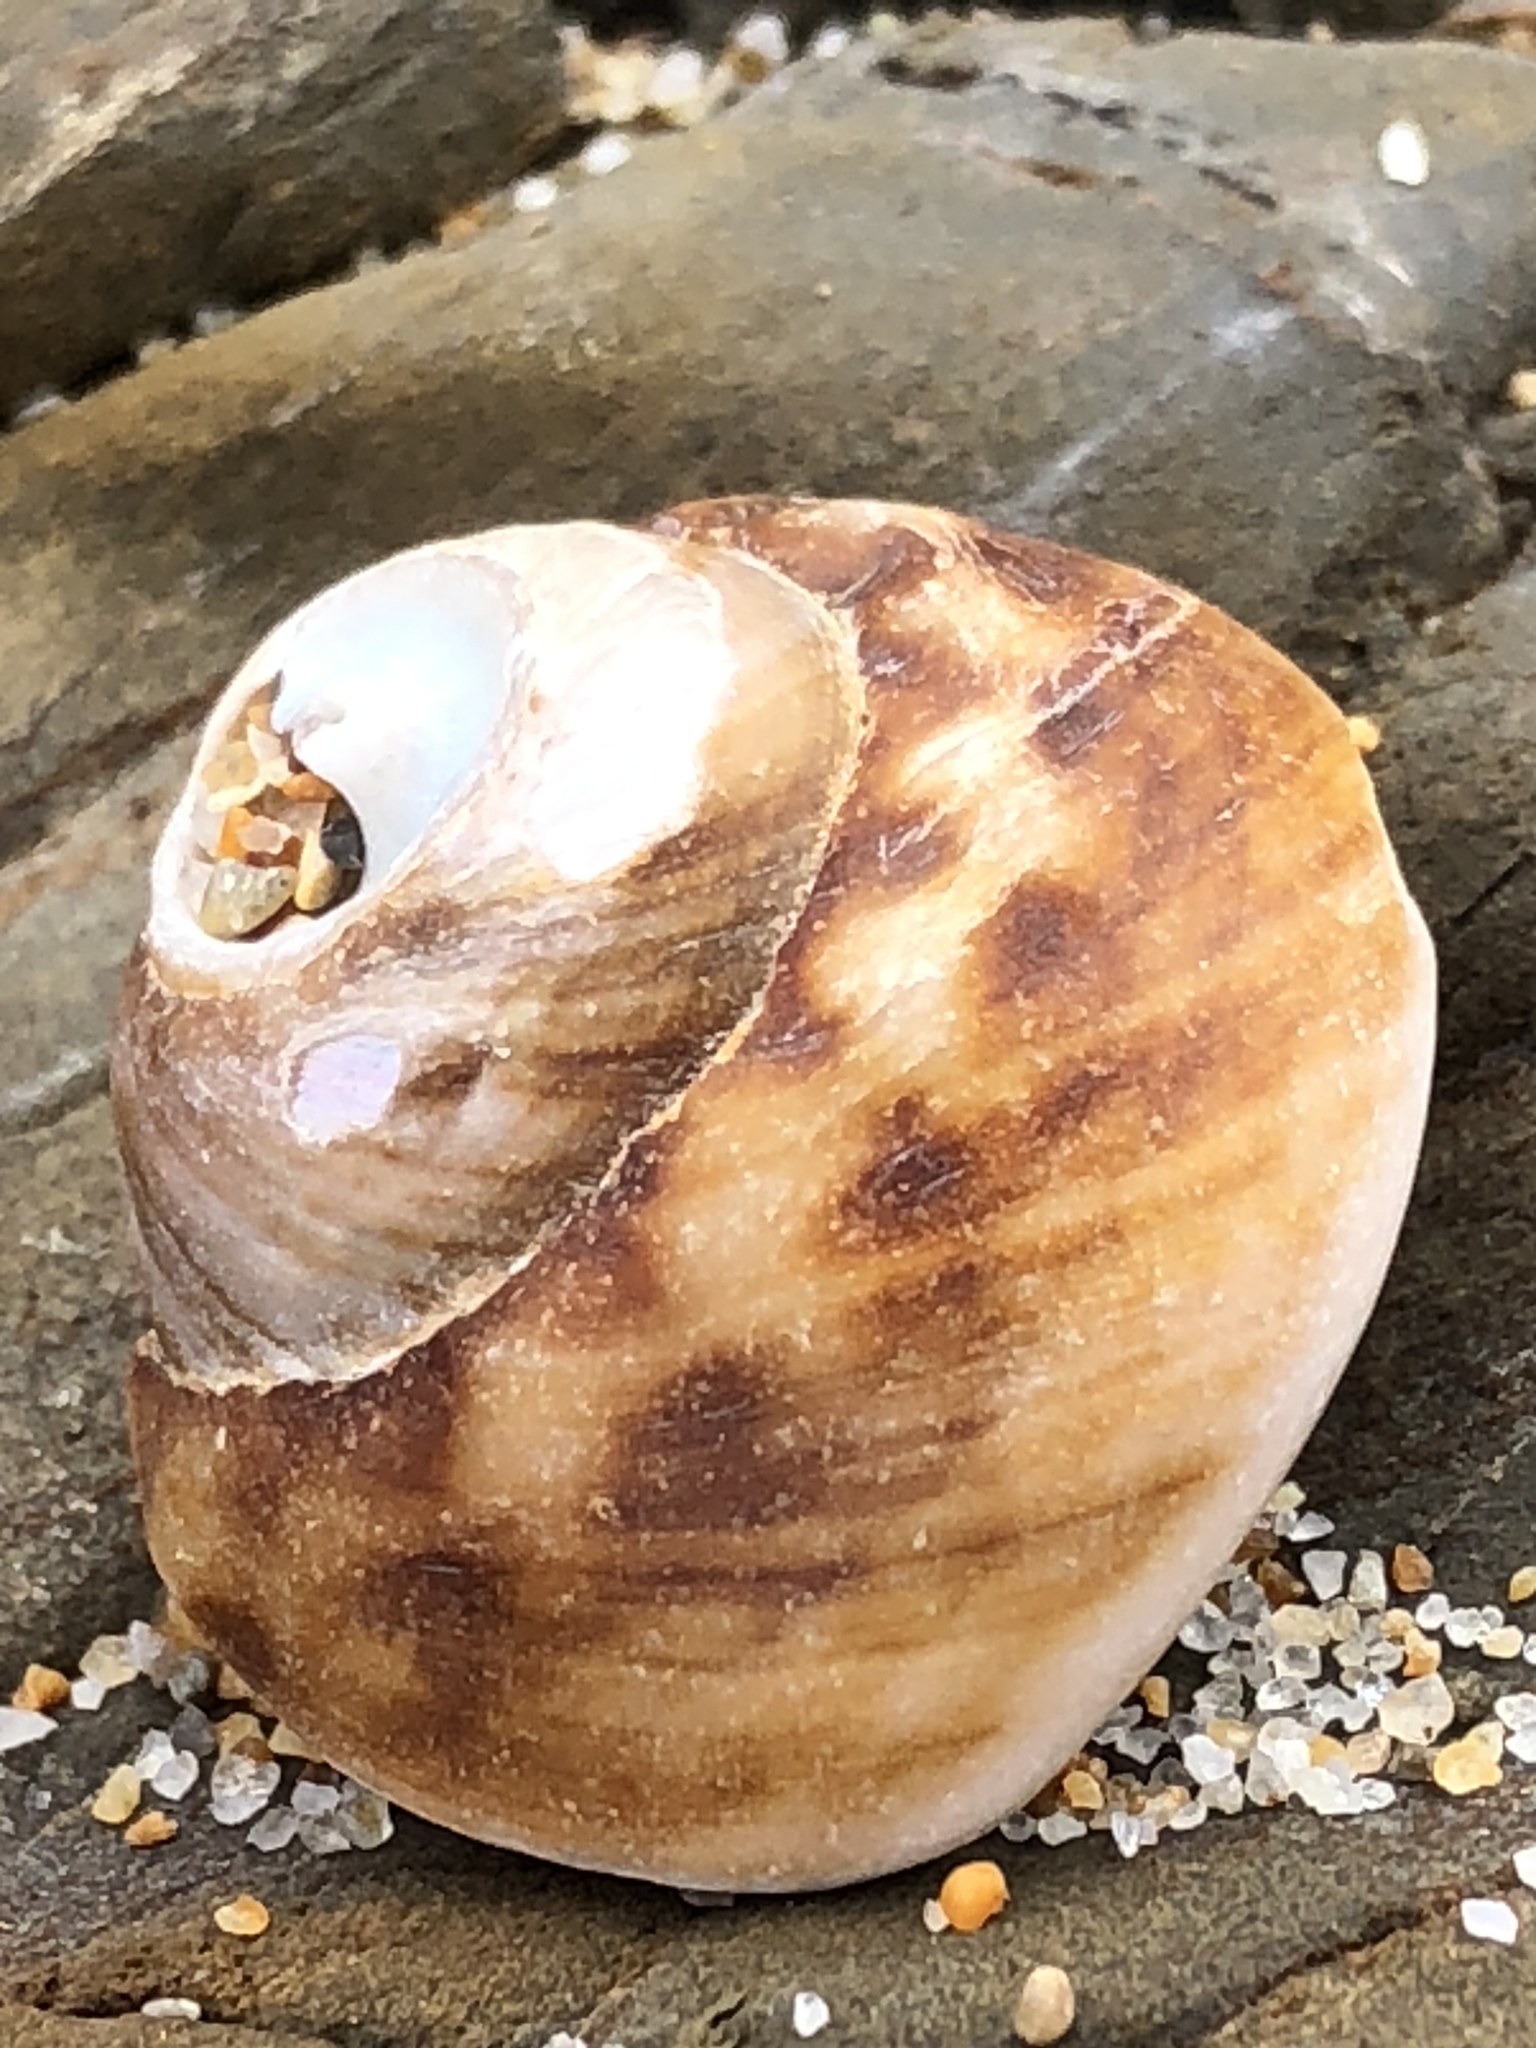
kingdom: Animalia
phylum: Mollusca
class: Gastropoda
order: Trochida
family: Tegulidae
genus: Tegula
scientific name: Tegula brunnea
